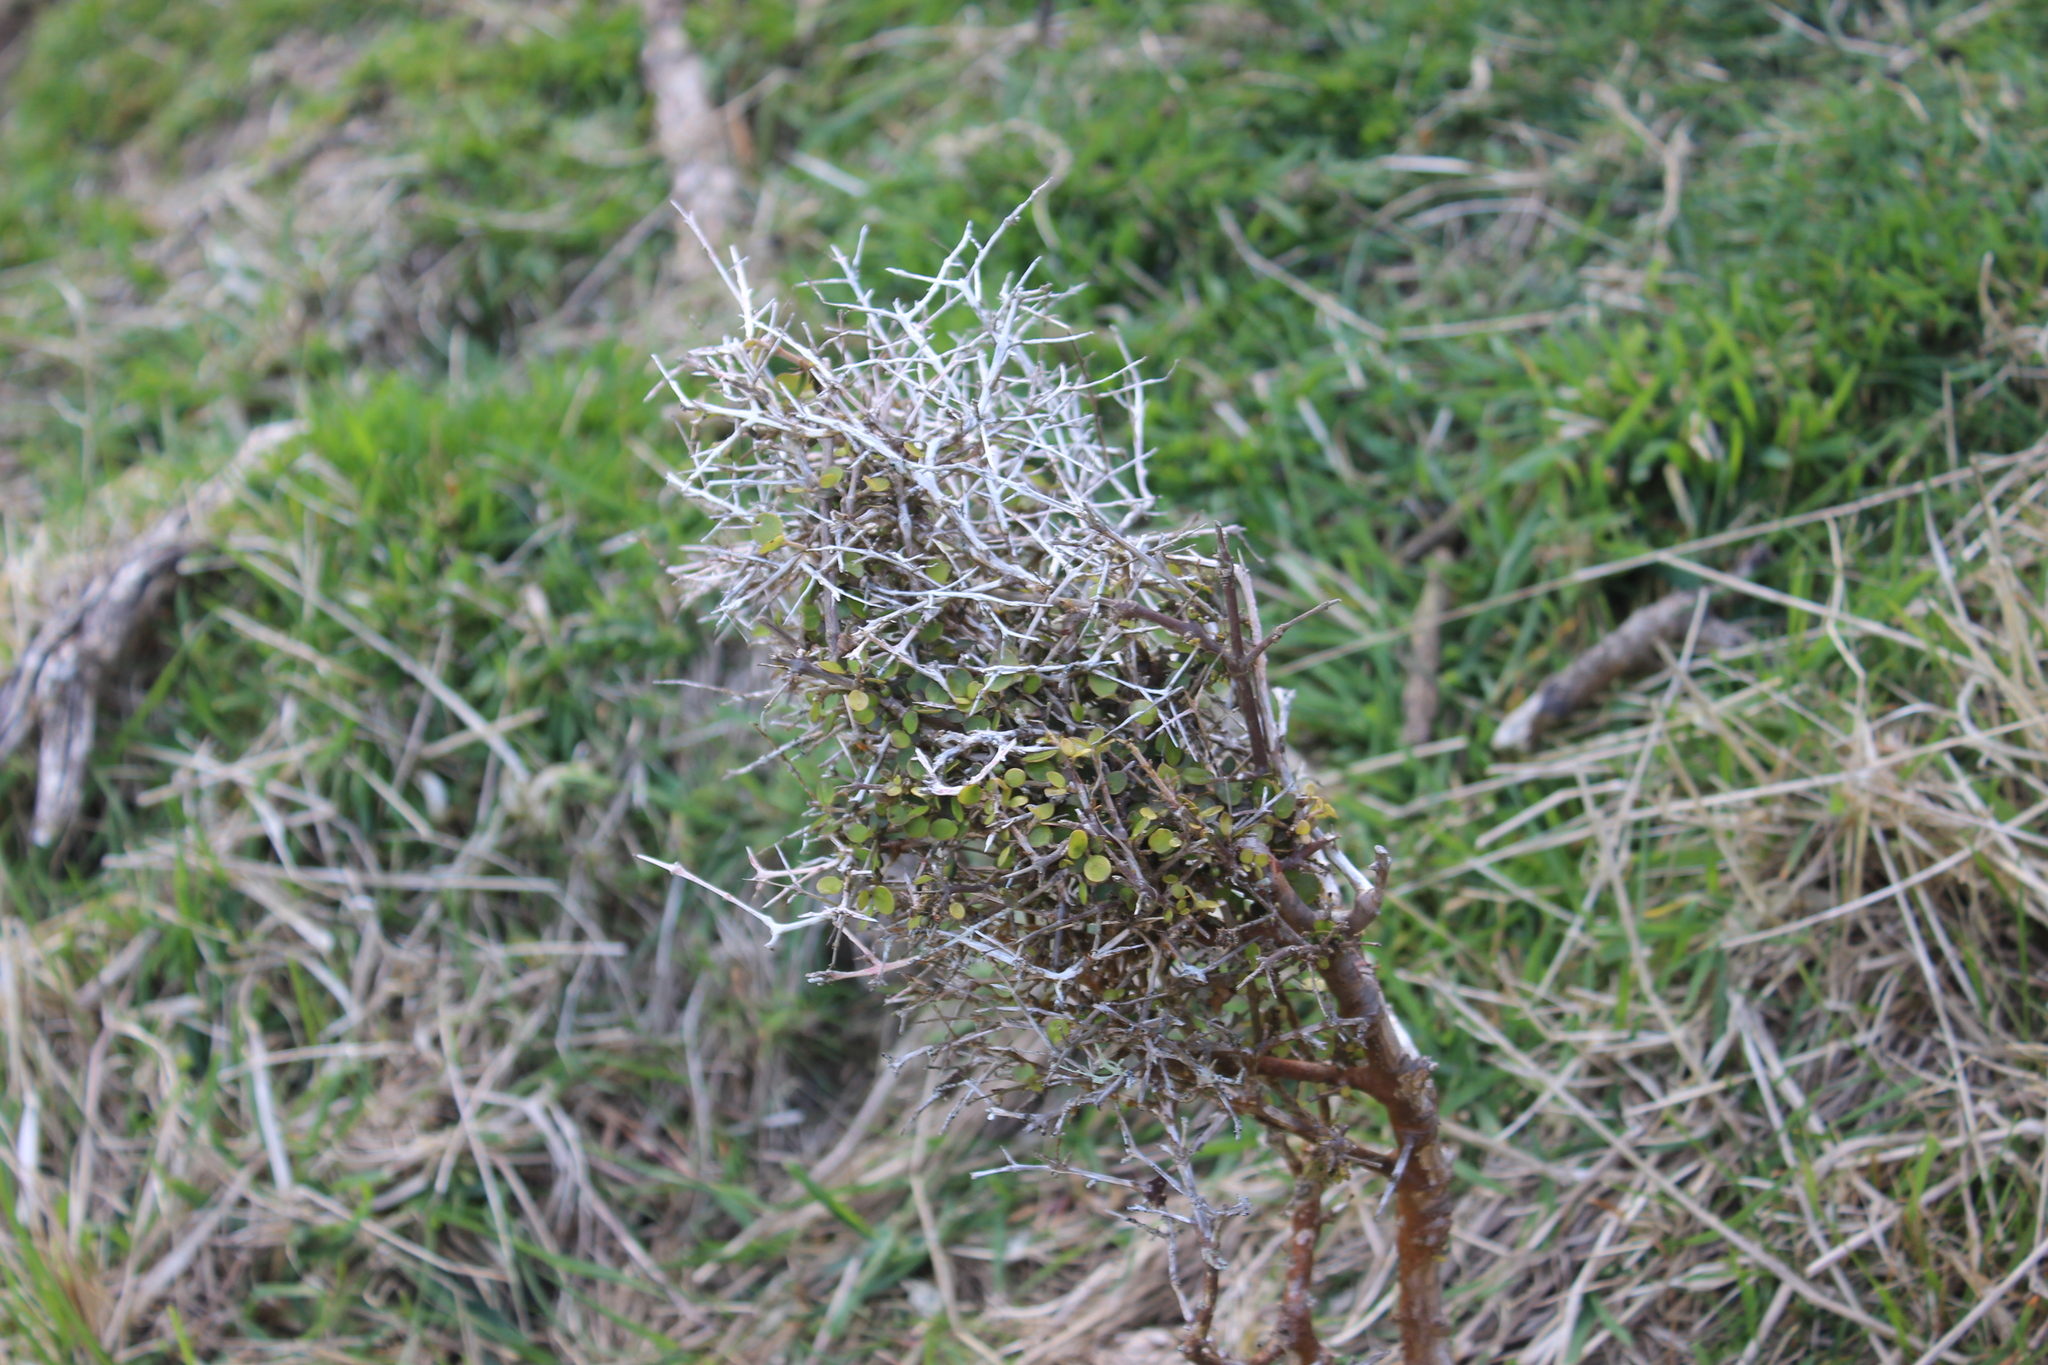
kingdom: Plantae
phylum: Tracheophyta
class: Magnoliopsida
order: Gentianales
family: Rubiaceae
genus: Coprosma
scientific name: Coprosma rhamnoides
